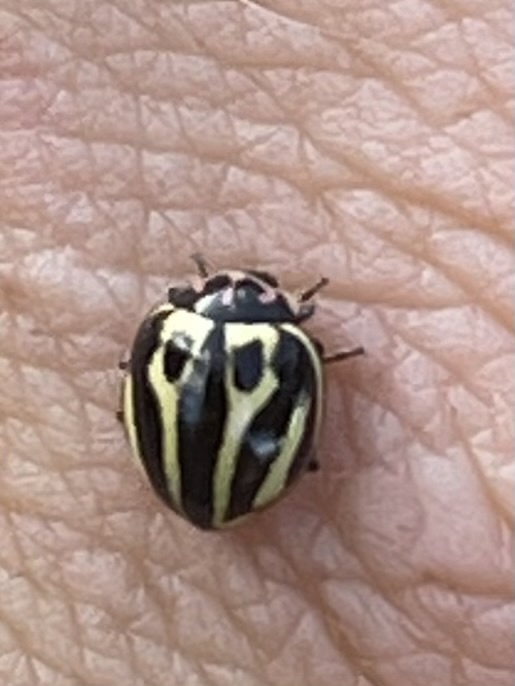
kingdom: Animalia
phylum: Arthropoda
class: Insecta
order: Coleoptera
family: Coccinellidae
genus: Micraspis
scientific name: Micraspis
